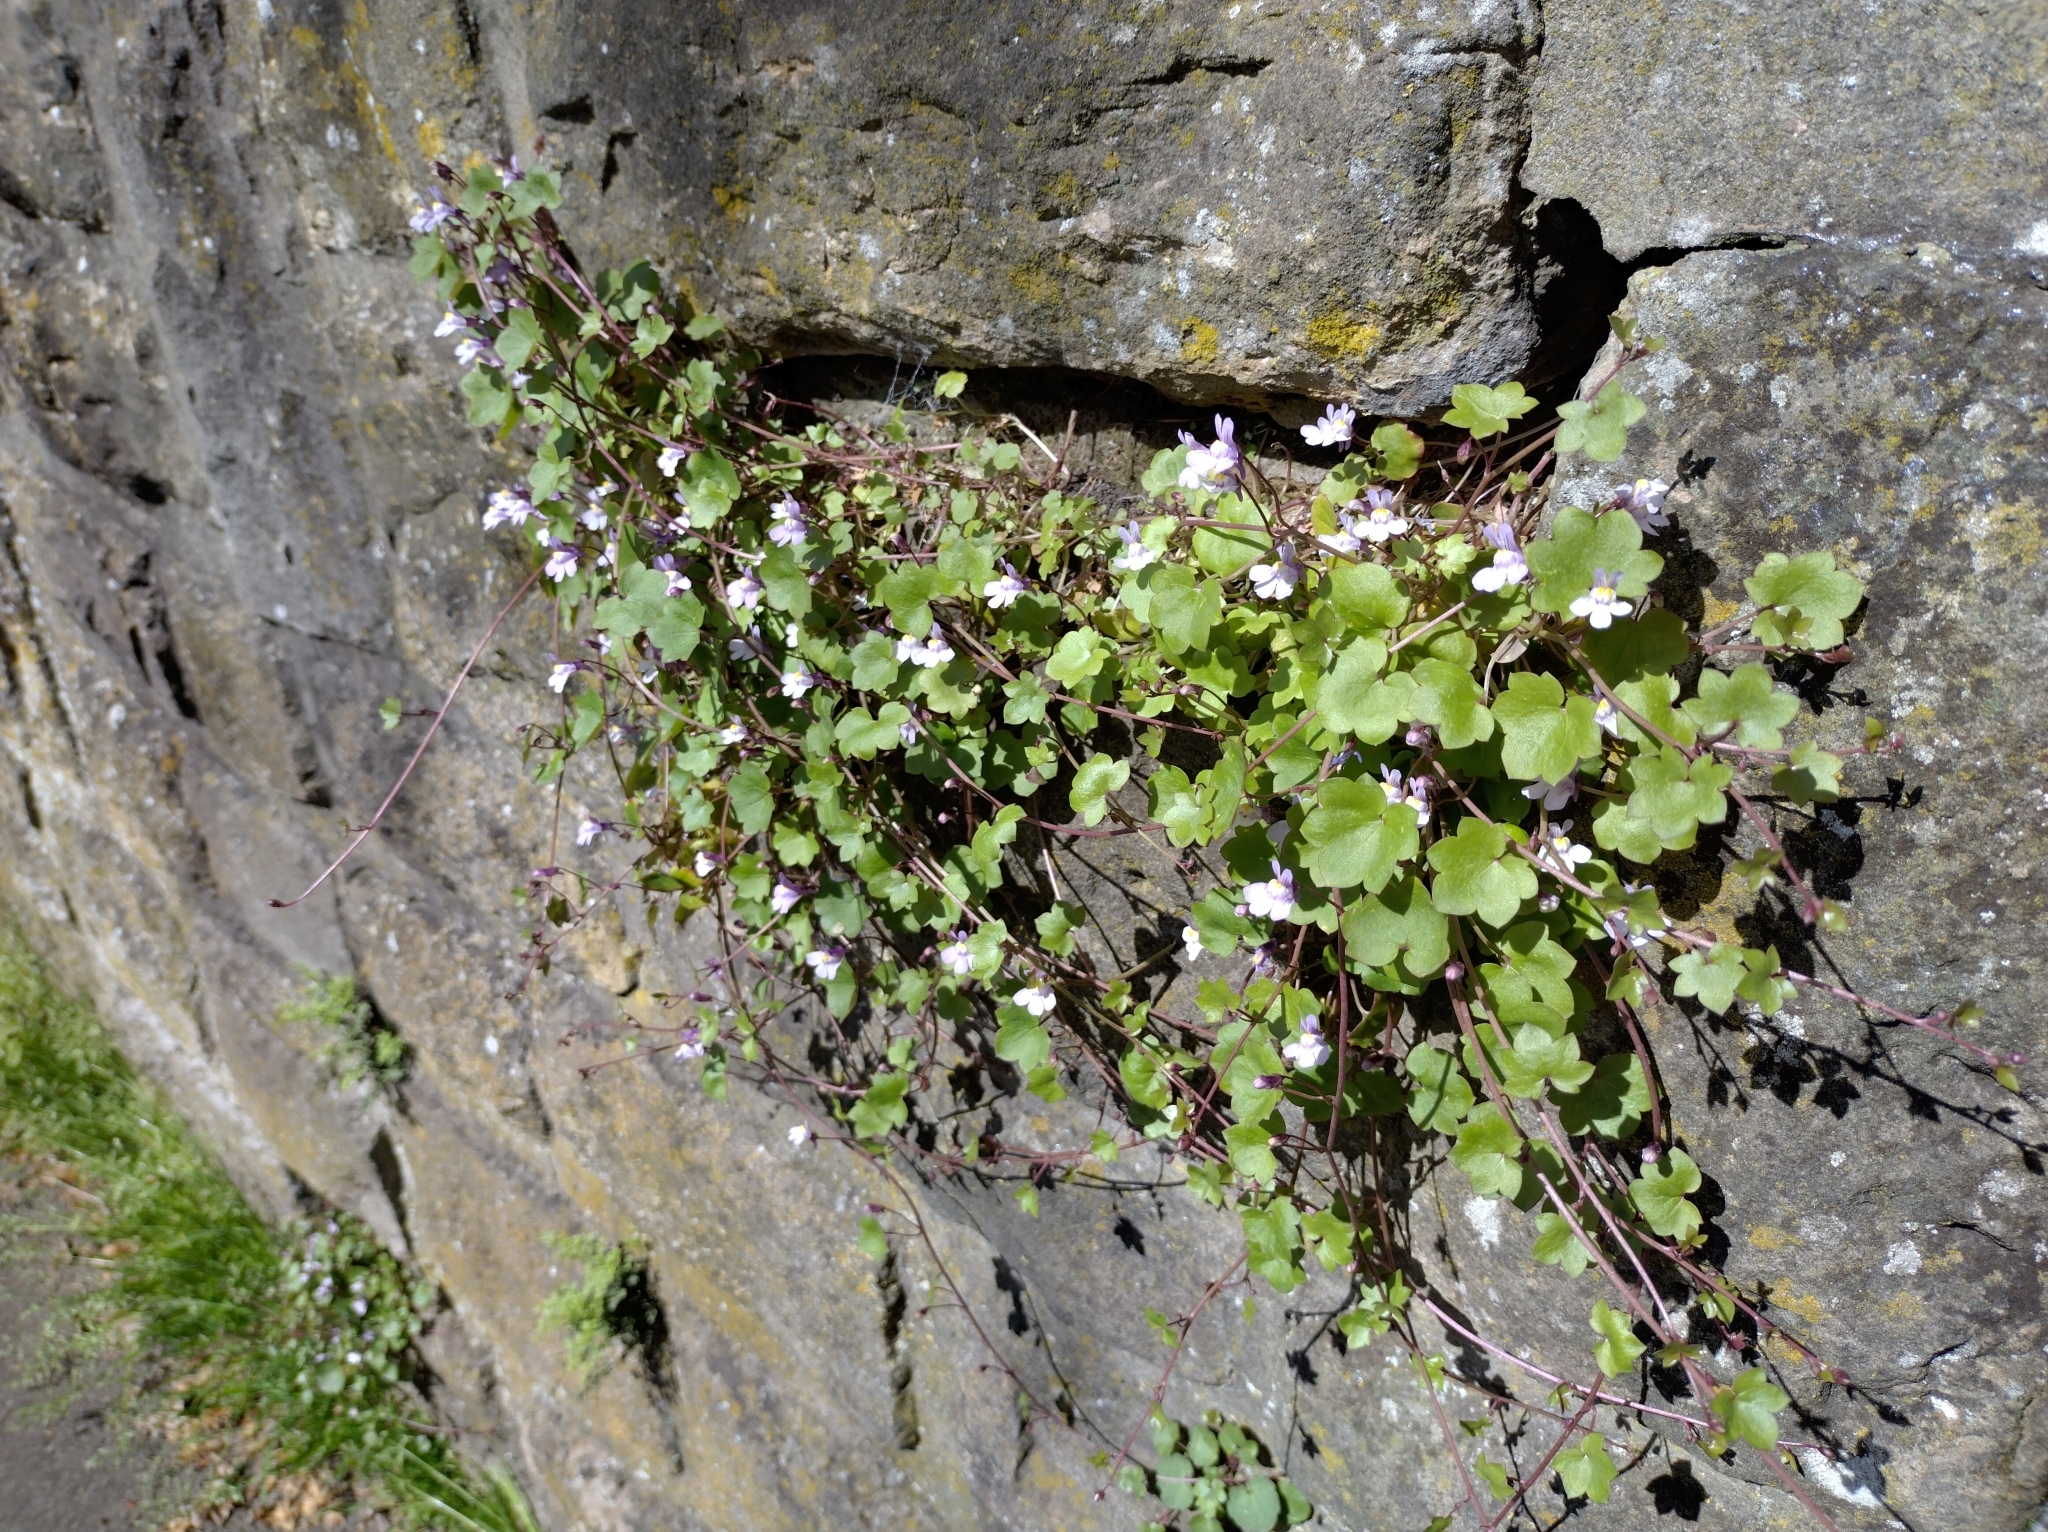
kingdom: Plantae
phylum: Tracheophyta
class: Magnoliopsida
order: Lamiales
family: Plantaginaceae
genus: Cymbalaria
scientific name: Cymbalaria muralis
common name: Ivy-leaved toadflax
